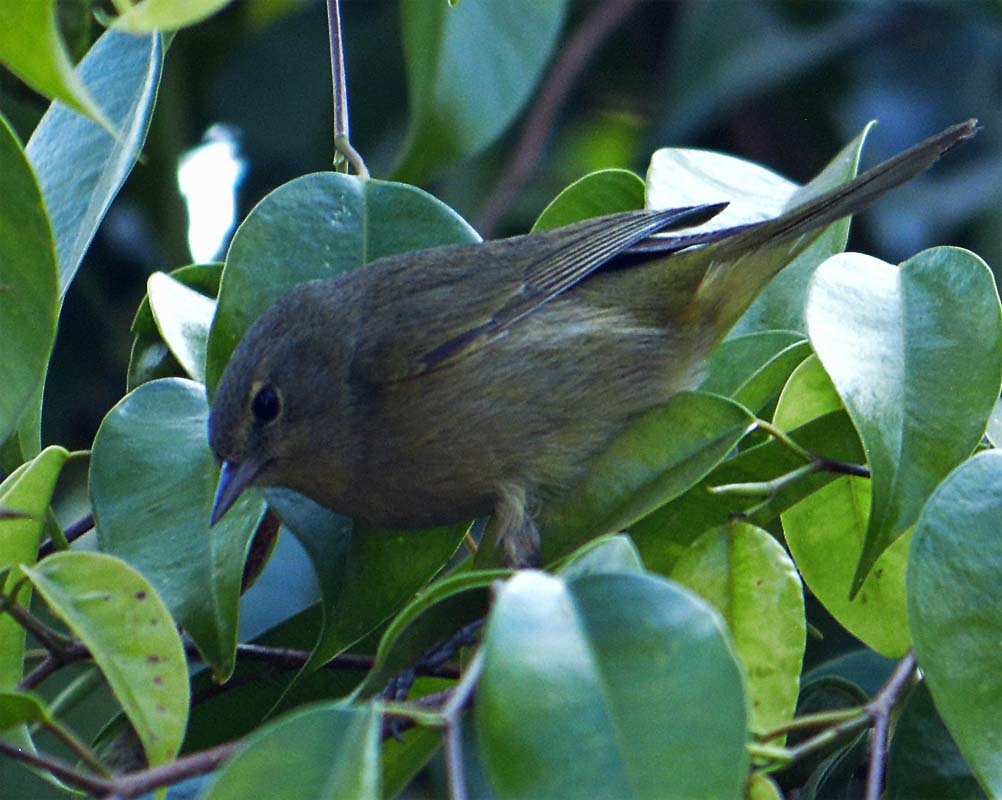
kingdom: Animalia
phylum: Chordata
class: Aves
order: Passeriformes
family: Parulidae
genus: Leiothlypis
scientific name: Leiothlypis celata
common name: Orange-crowned warbler
